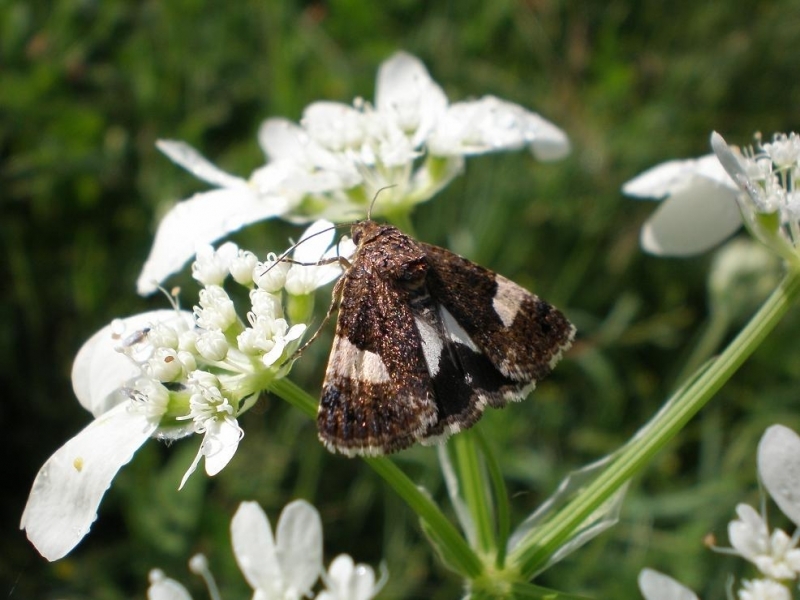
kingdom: Animalia
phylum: Arthropoda
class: Insecta
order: Lepidoptera
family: Erebidae
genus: Tyta
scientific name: Tyta luctuosa
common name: Four-spotted
